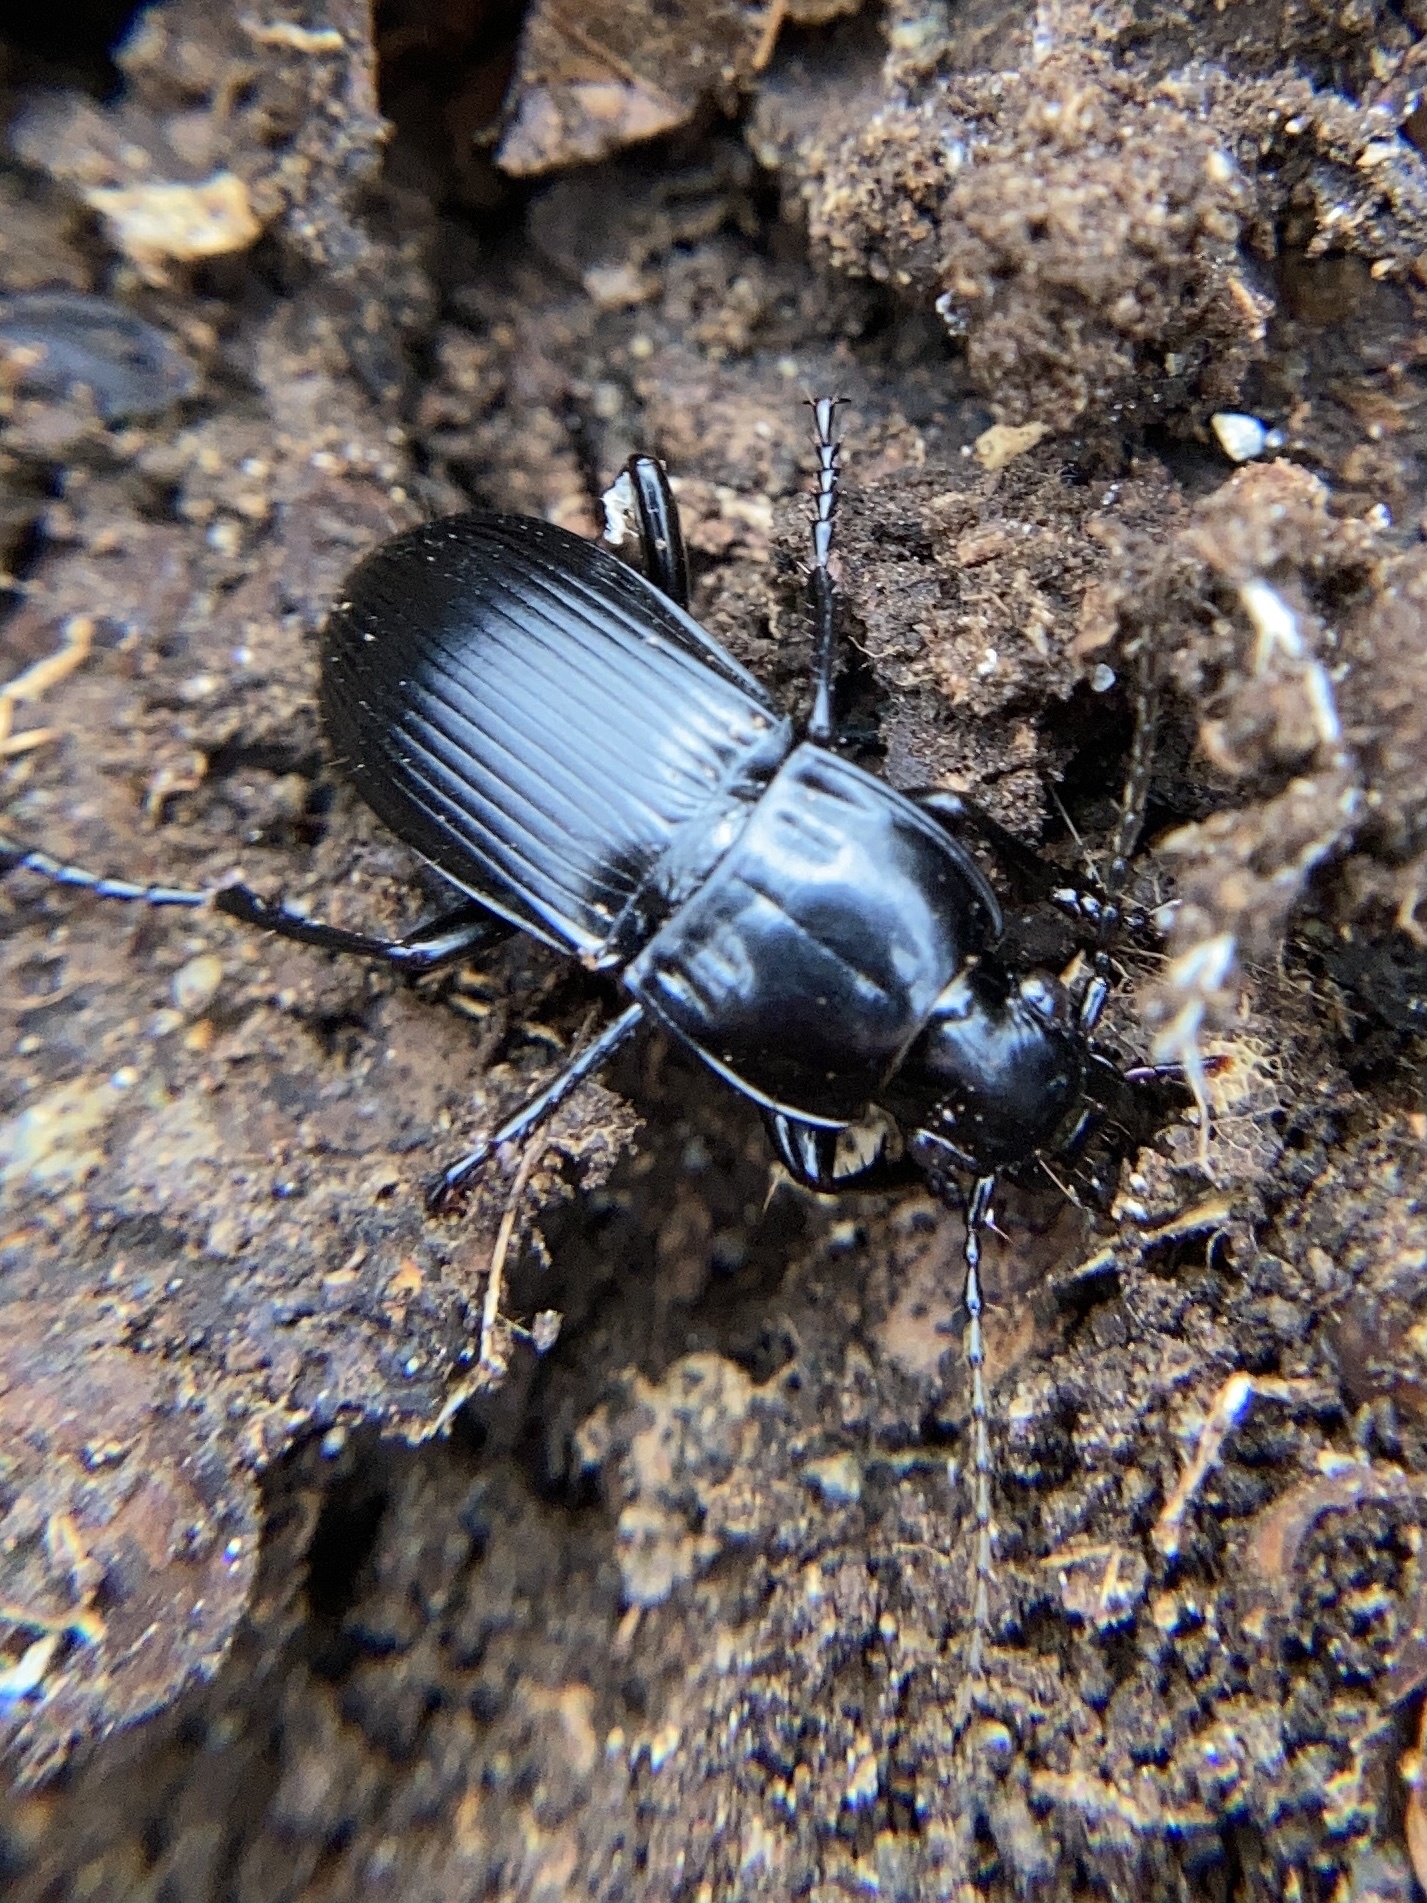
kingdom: Animalia
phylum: Arthropoda
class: Insecta
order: Coleoptera
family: Carabidae
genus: Abax
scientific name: Abax parallelepipedus
